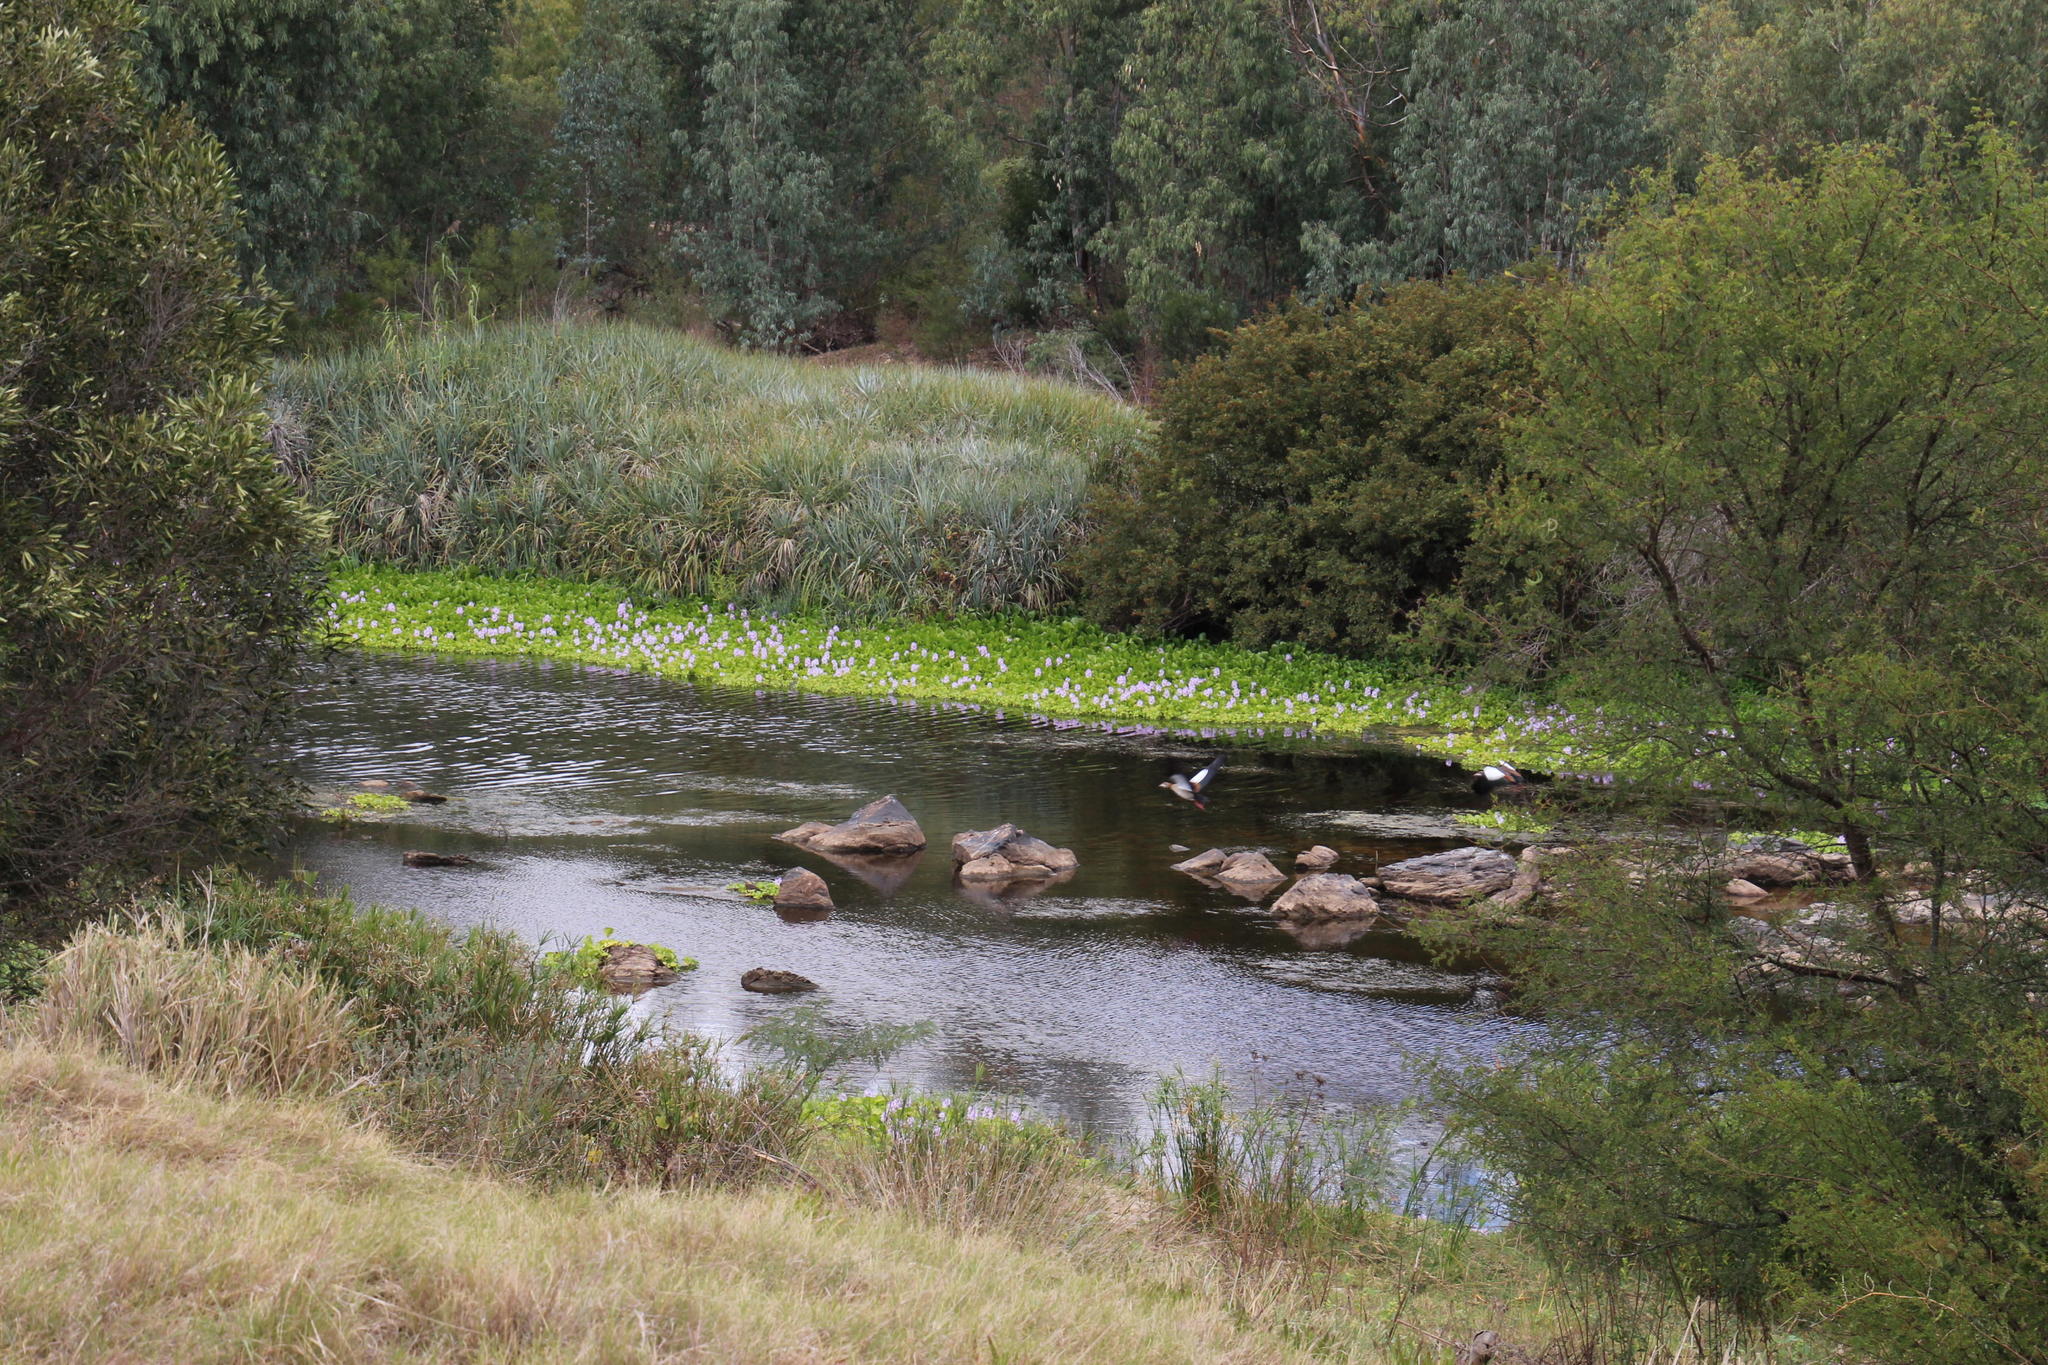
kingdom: Plantae
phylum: Tracheophyta
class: Liliopsida
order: Commelinales
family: Pontederiaceae
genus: Pontederia
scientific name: Pontederia crassipes
